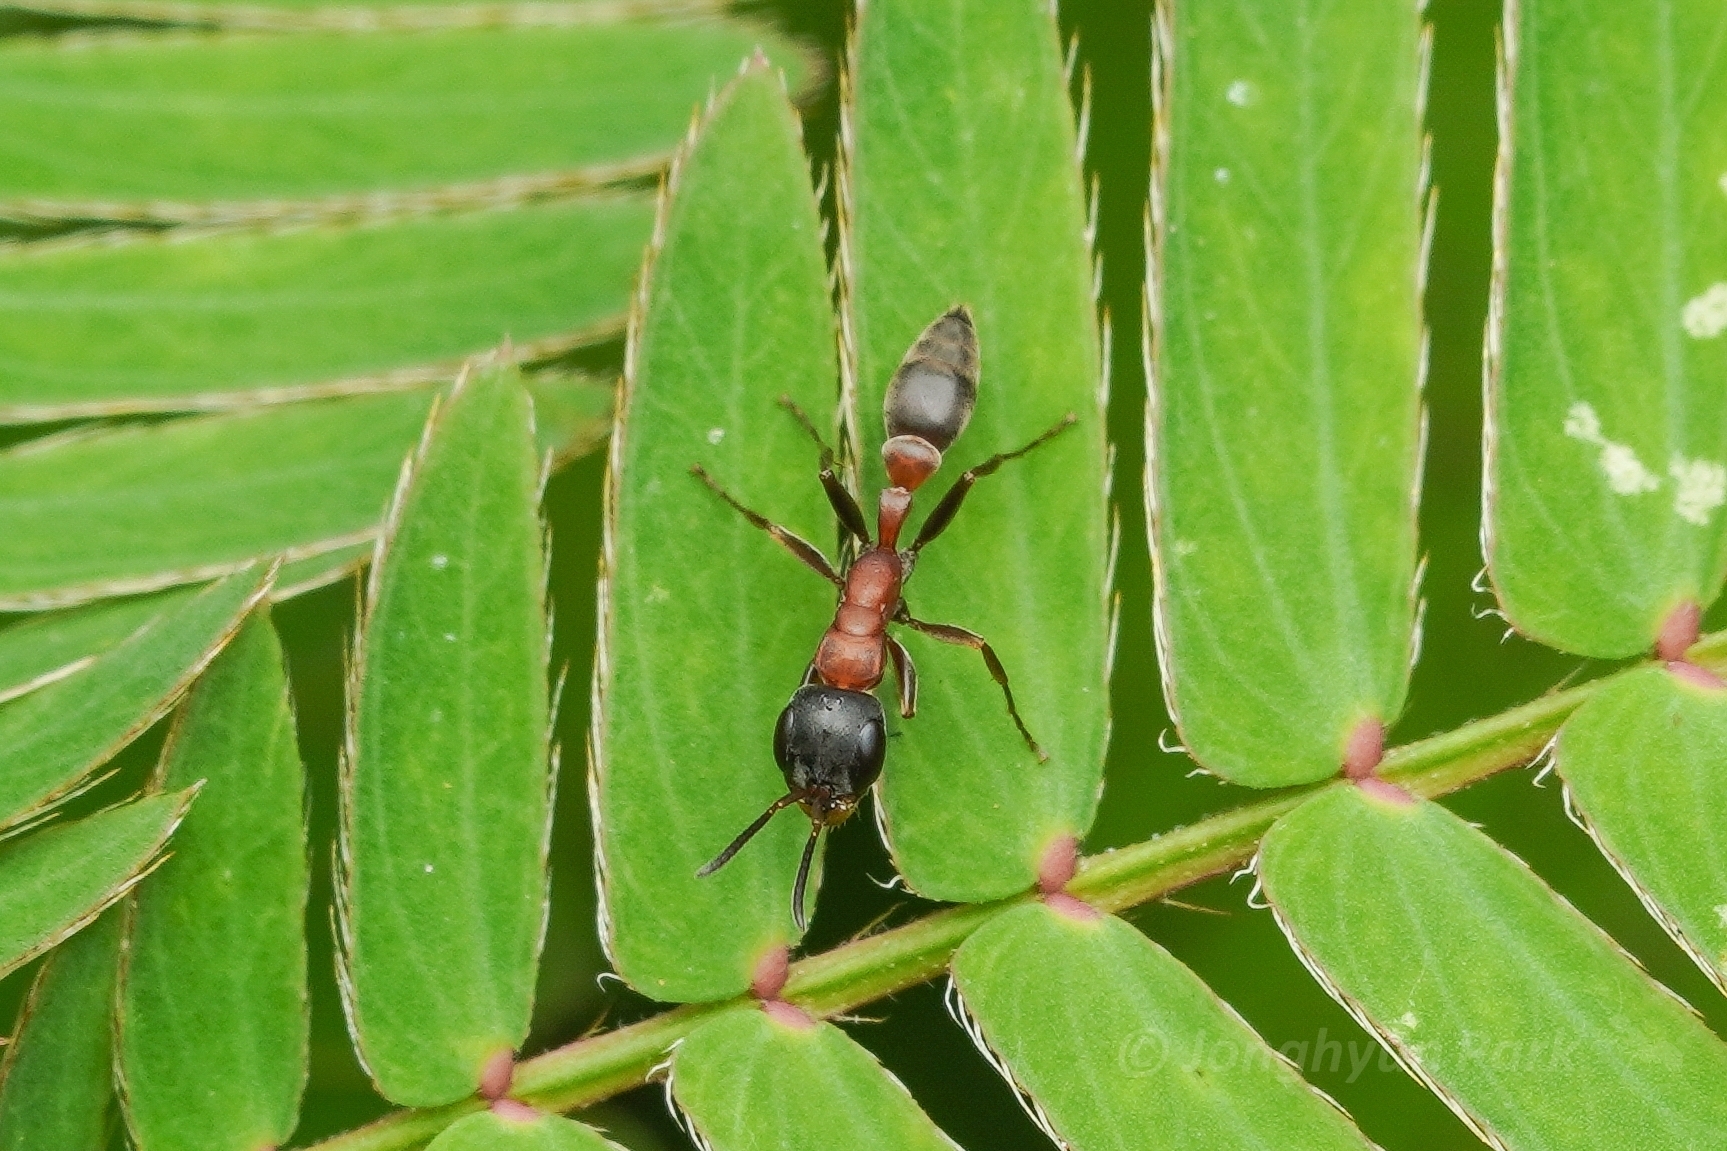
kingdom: Animalia
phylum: Arthropoda
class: Insecta
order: Hymenoptera
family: Formicidae
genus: Pseudomyrmex
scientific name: Pseudomyrmex termitarius
